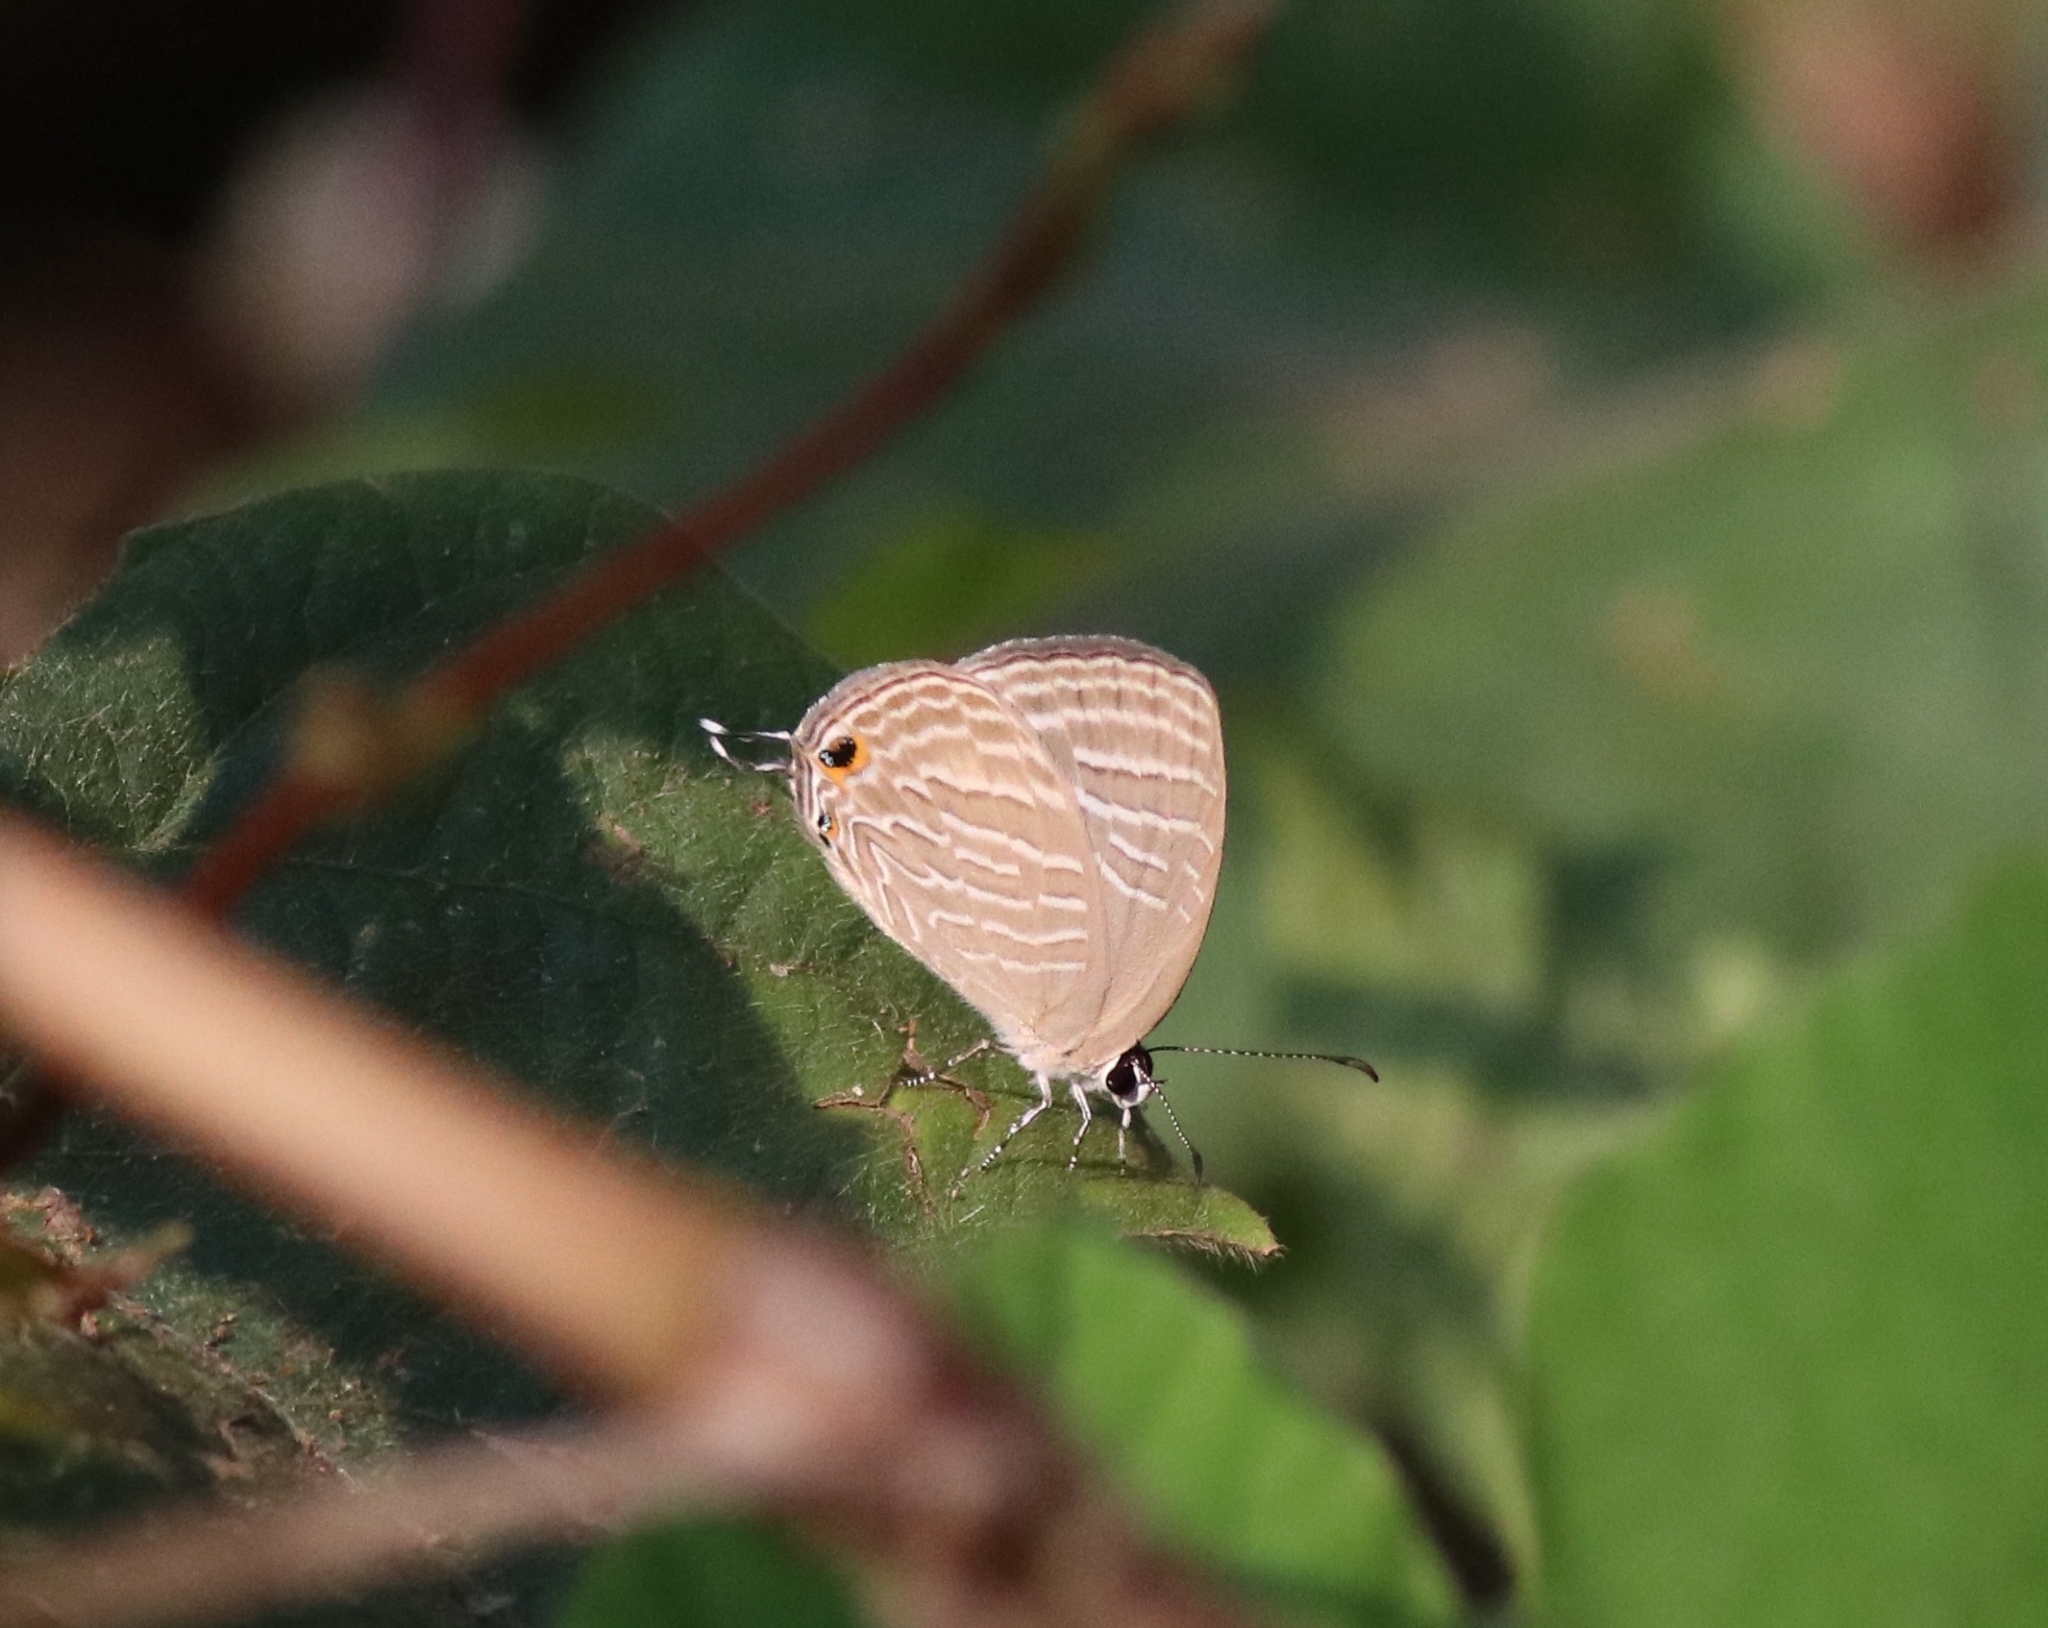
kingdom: Animalia
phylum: Arthropoda
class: Insecta
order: Lepidoptera
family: Lycaenidae
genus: Jamides
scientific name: Jamides celeno
